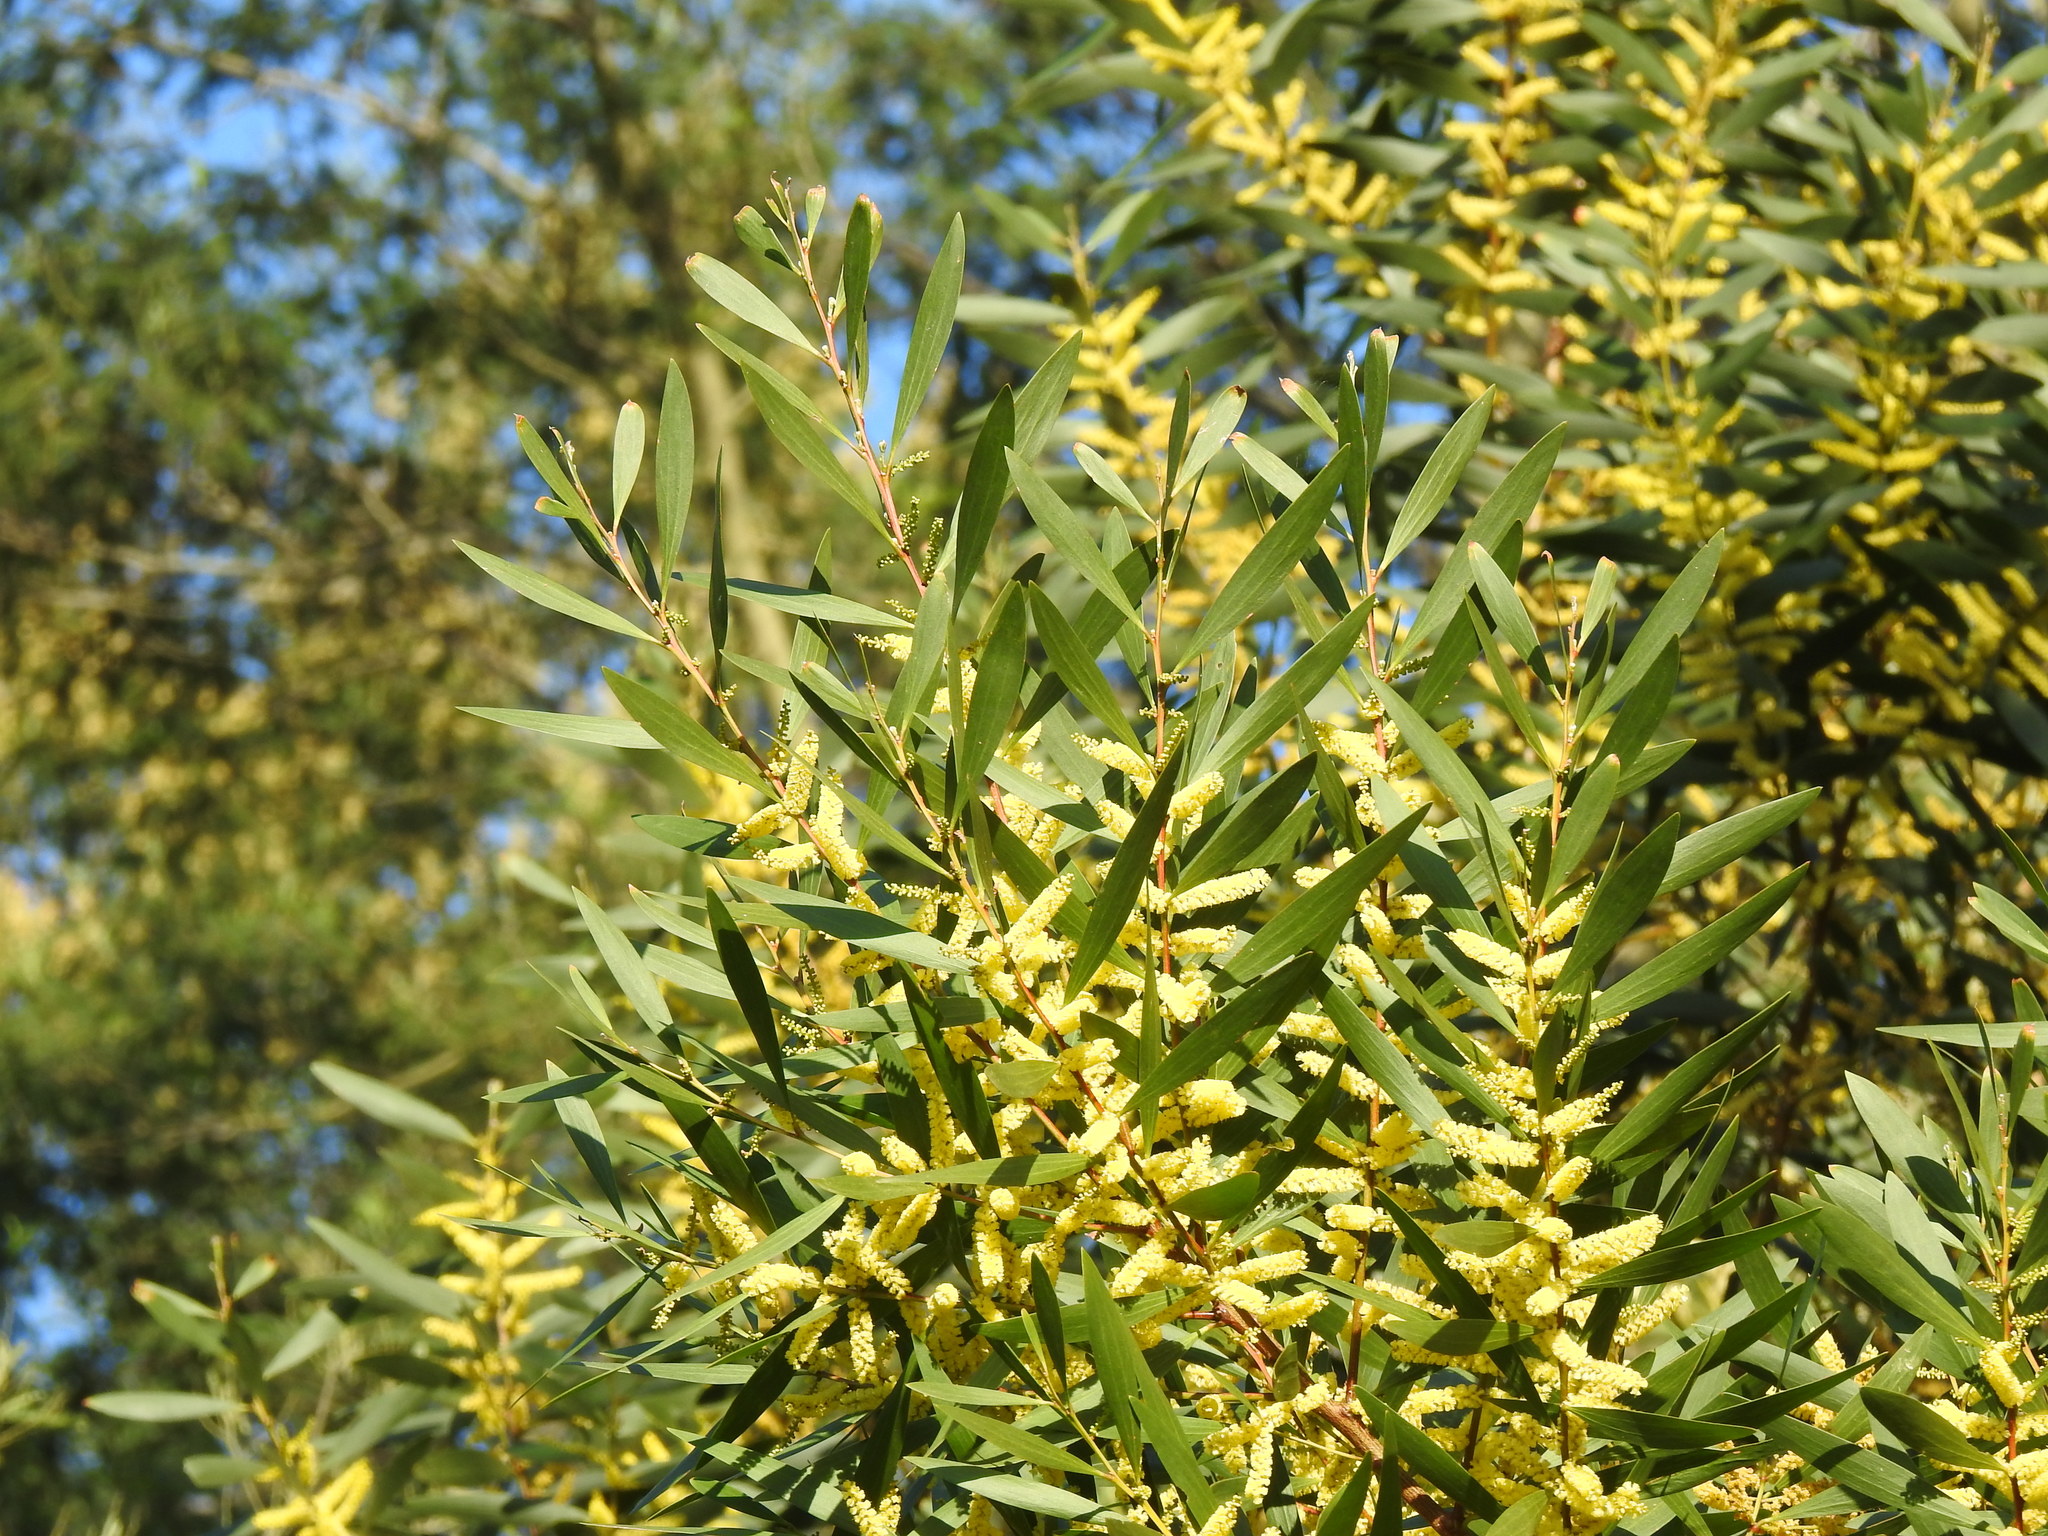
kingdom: Plantae
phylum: Tracheophyta
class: Magnoliopsida
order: Fabales
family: Fabaceae
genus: Acacia
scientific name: Acacia longifolia
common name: Sydney golden wattle
